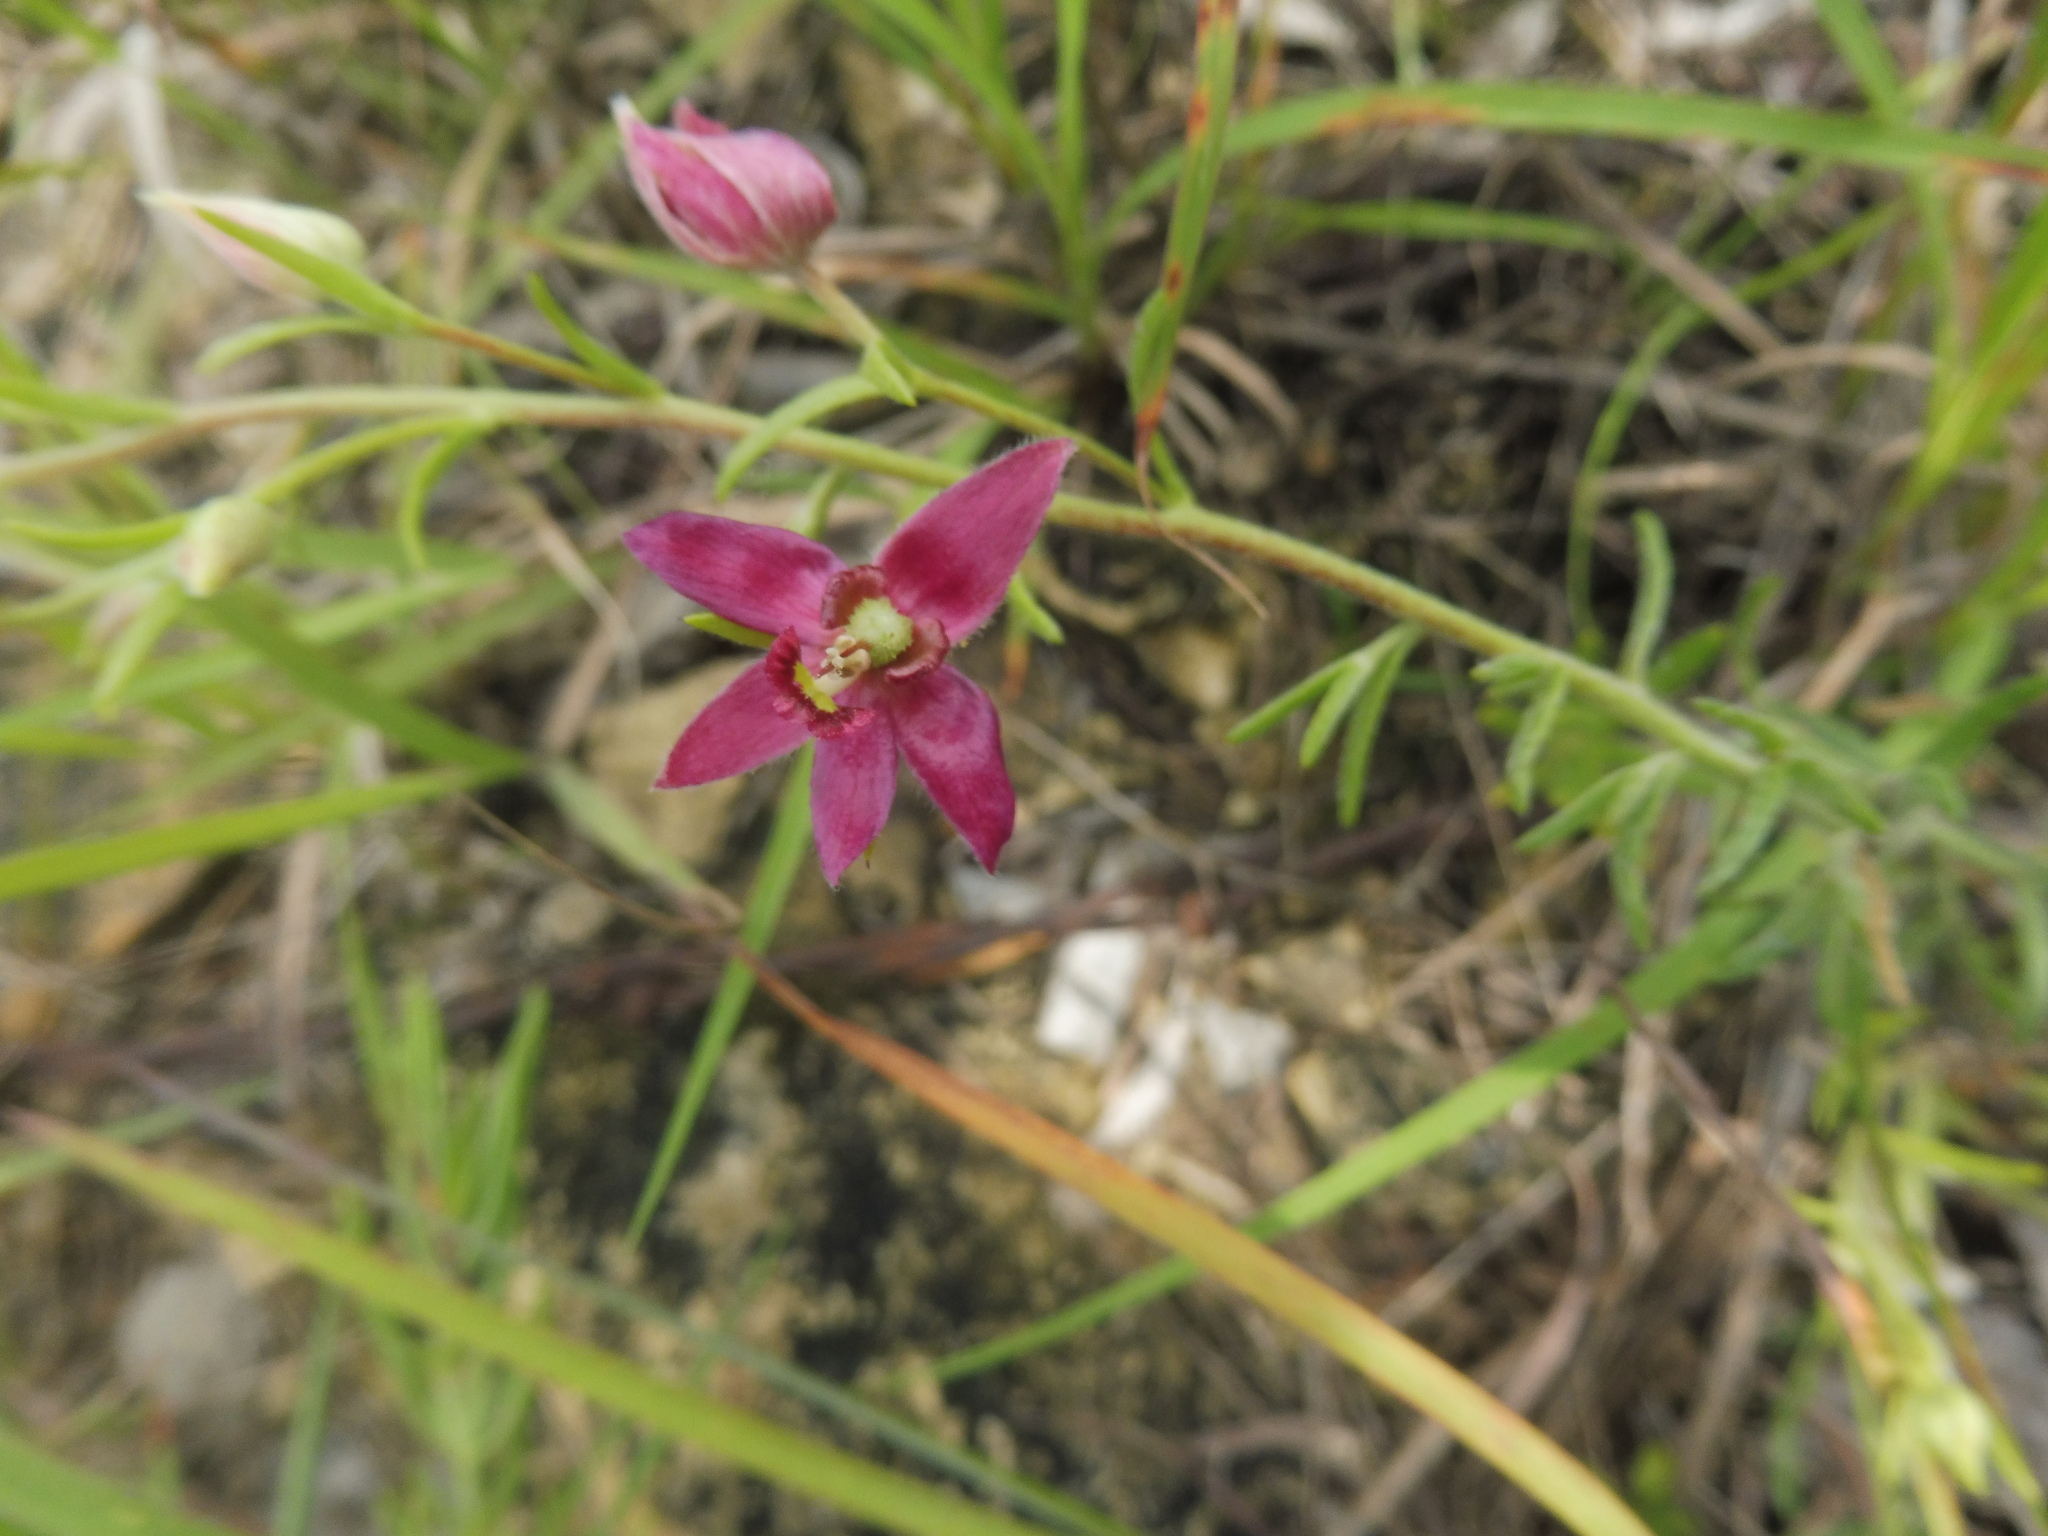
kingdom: Plantae
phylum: Tracheophyta
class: Magnoliopsida
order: Zygophyllales
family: Krameriaceae
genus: Krameria
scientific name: Krameria lanceolata
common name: Ratany
